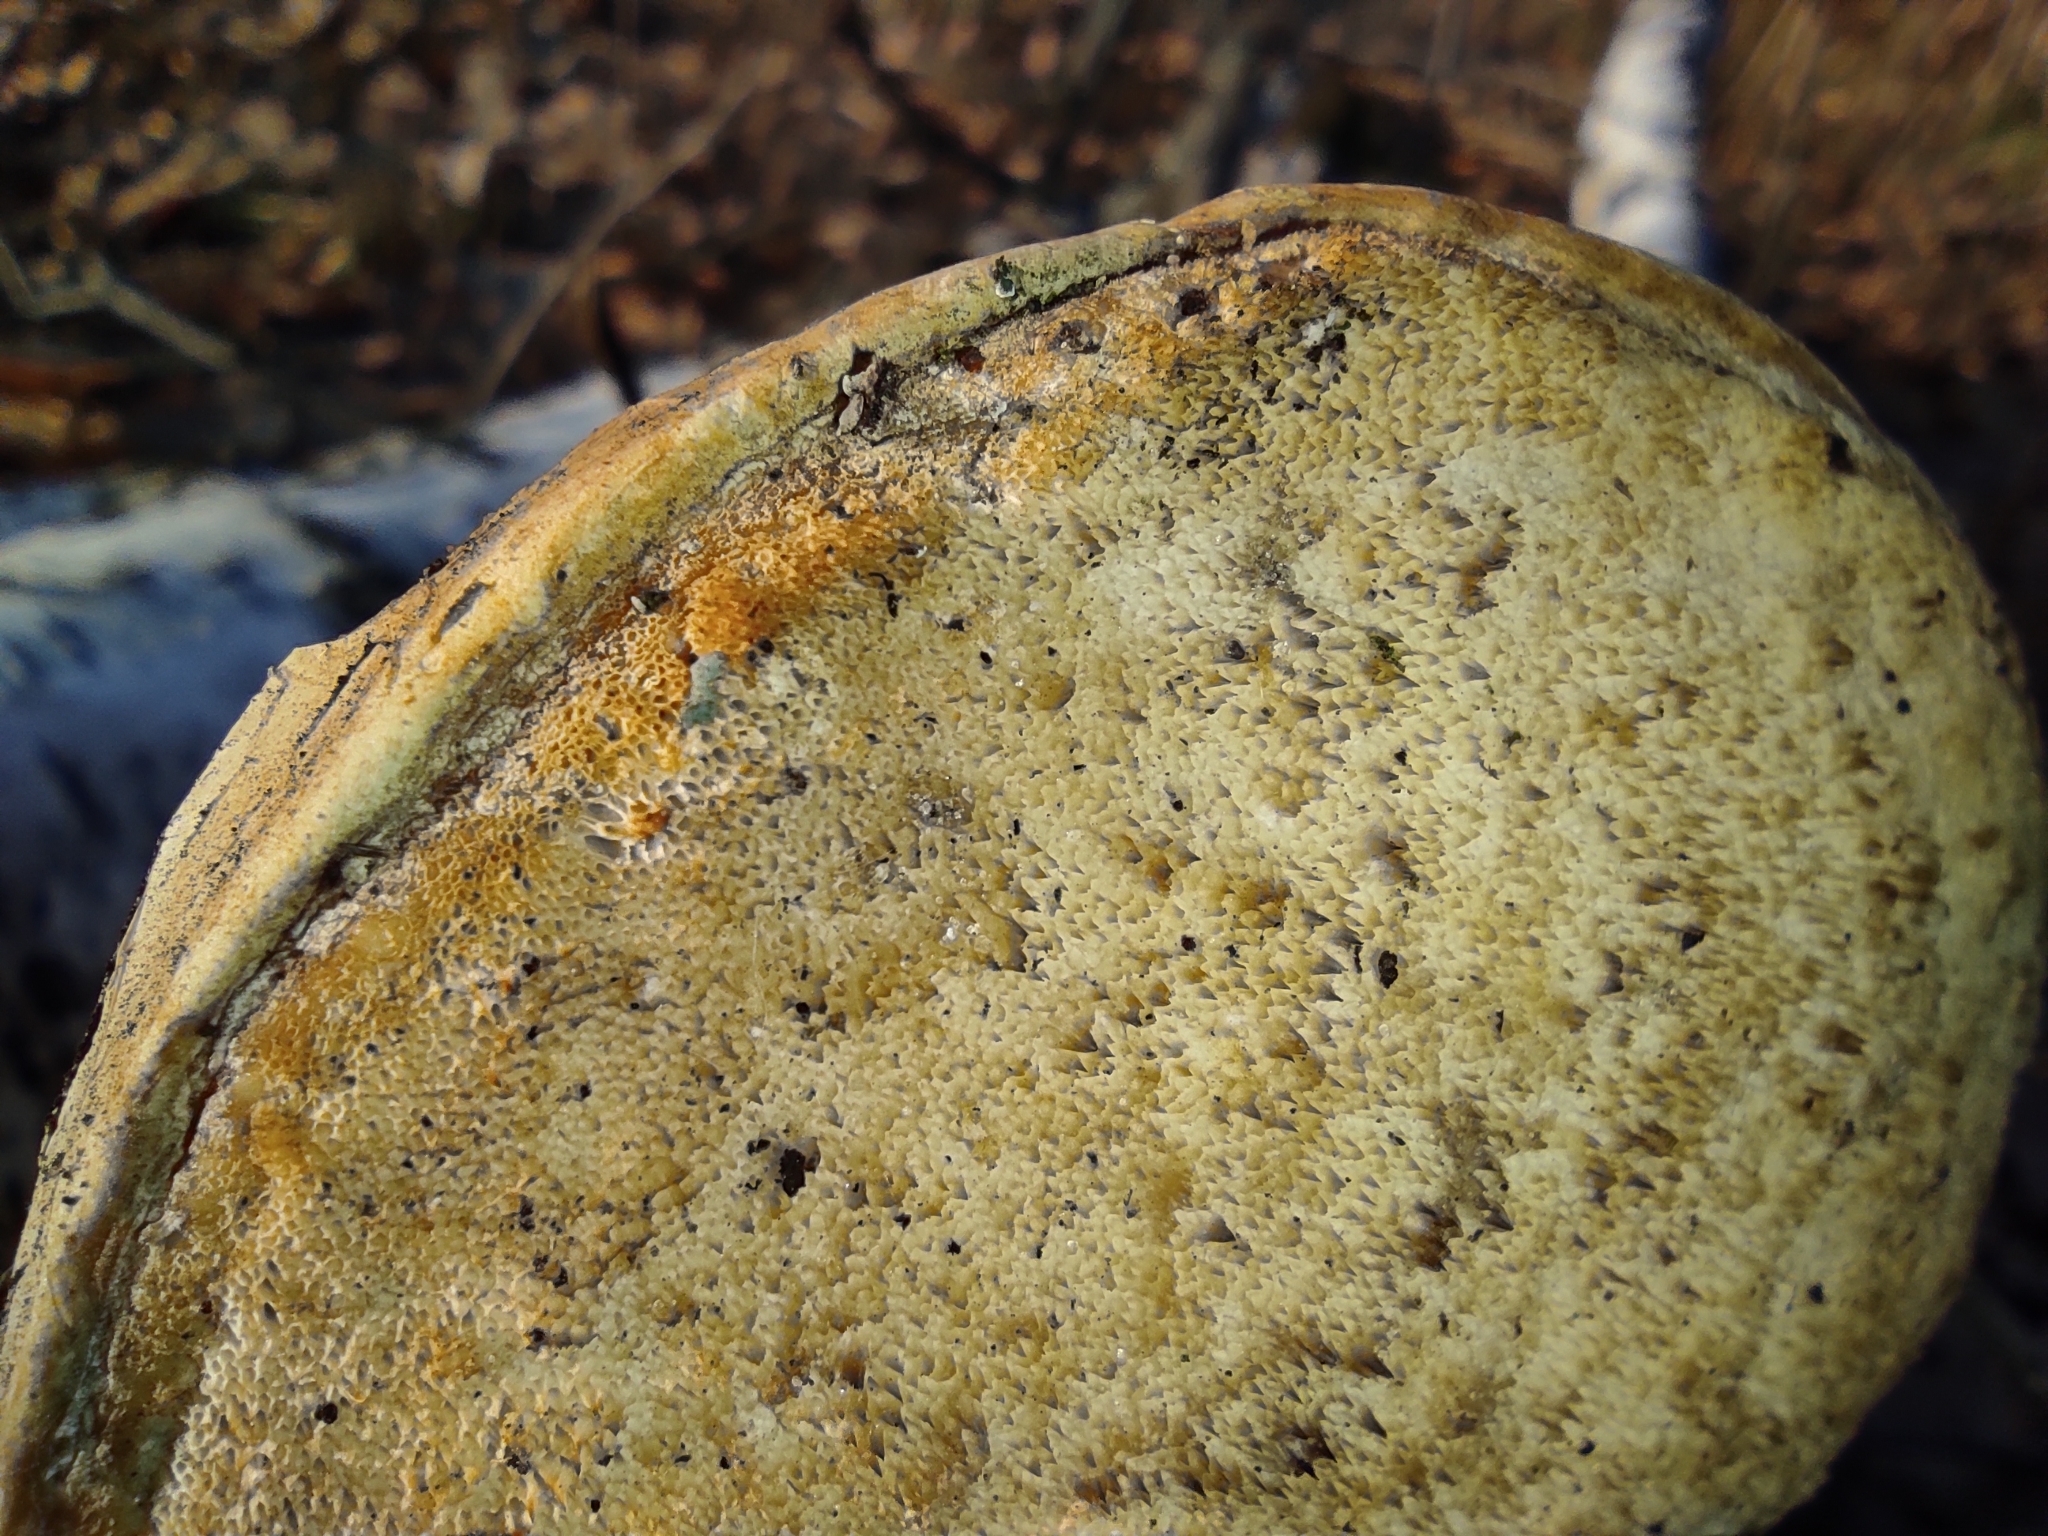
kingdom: Fungi
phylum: Basidiomycota
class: Agaricomycetes
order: Polyporales
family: Fomitopsidaceae
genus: Fomitopsis
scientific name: Fomitopsis betulina
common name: Birch polypore
